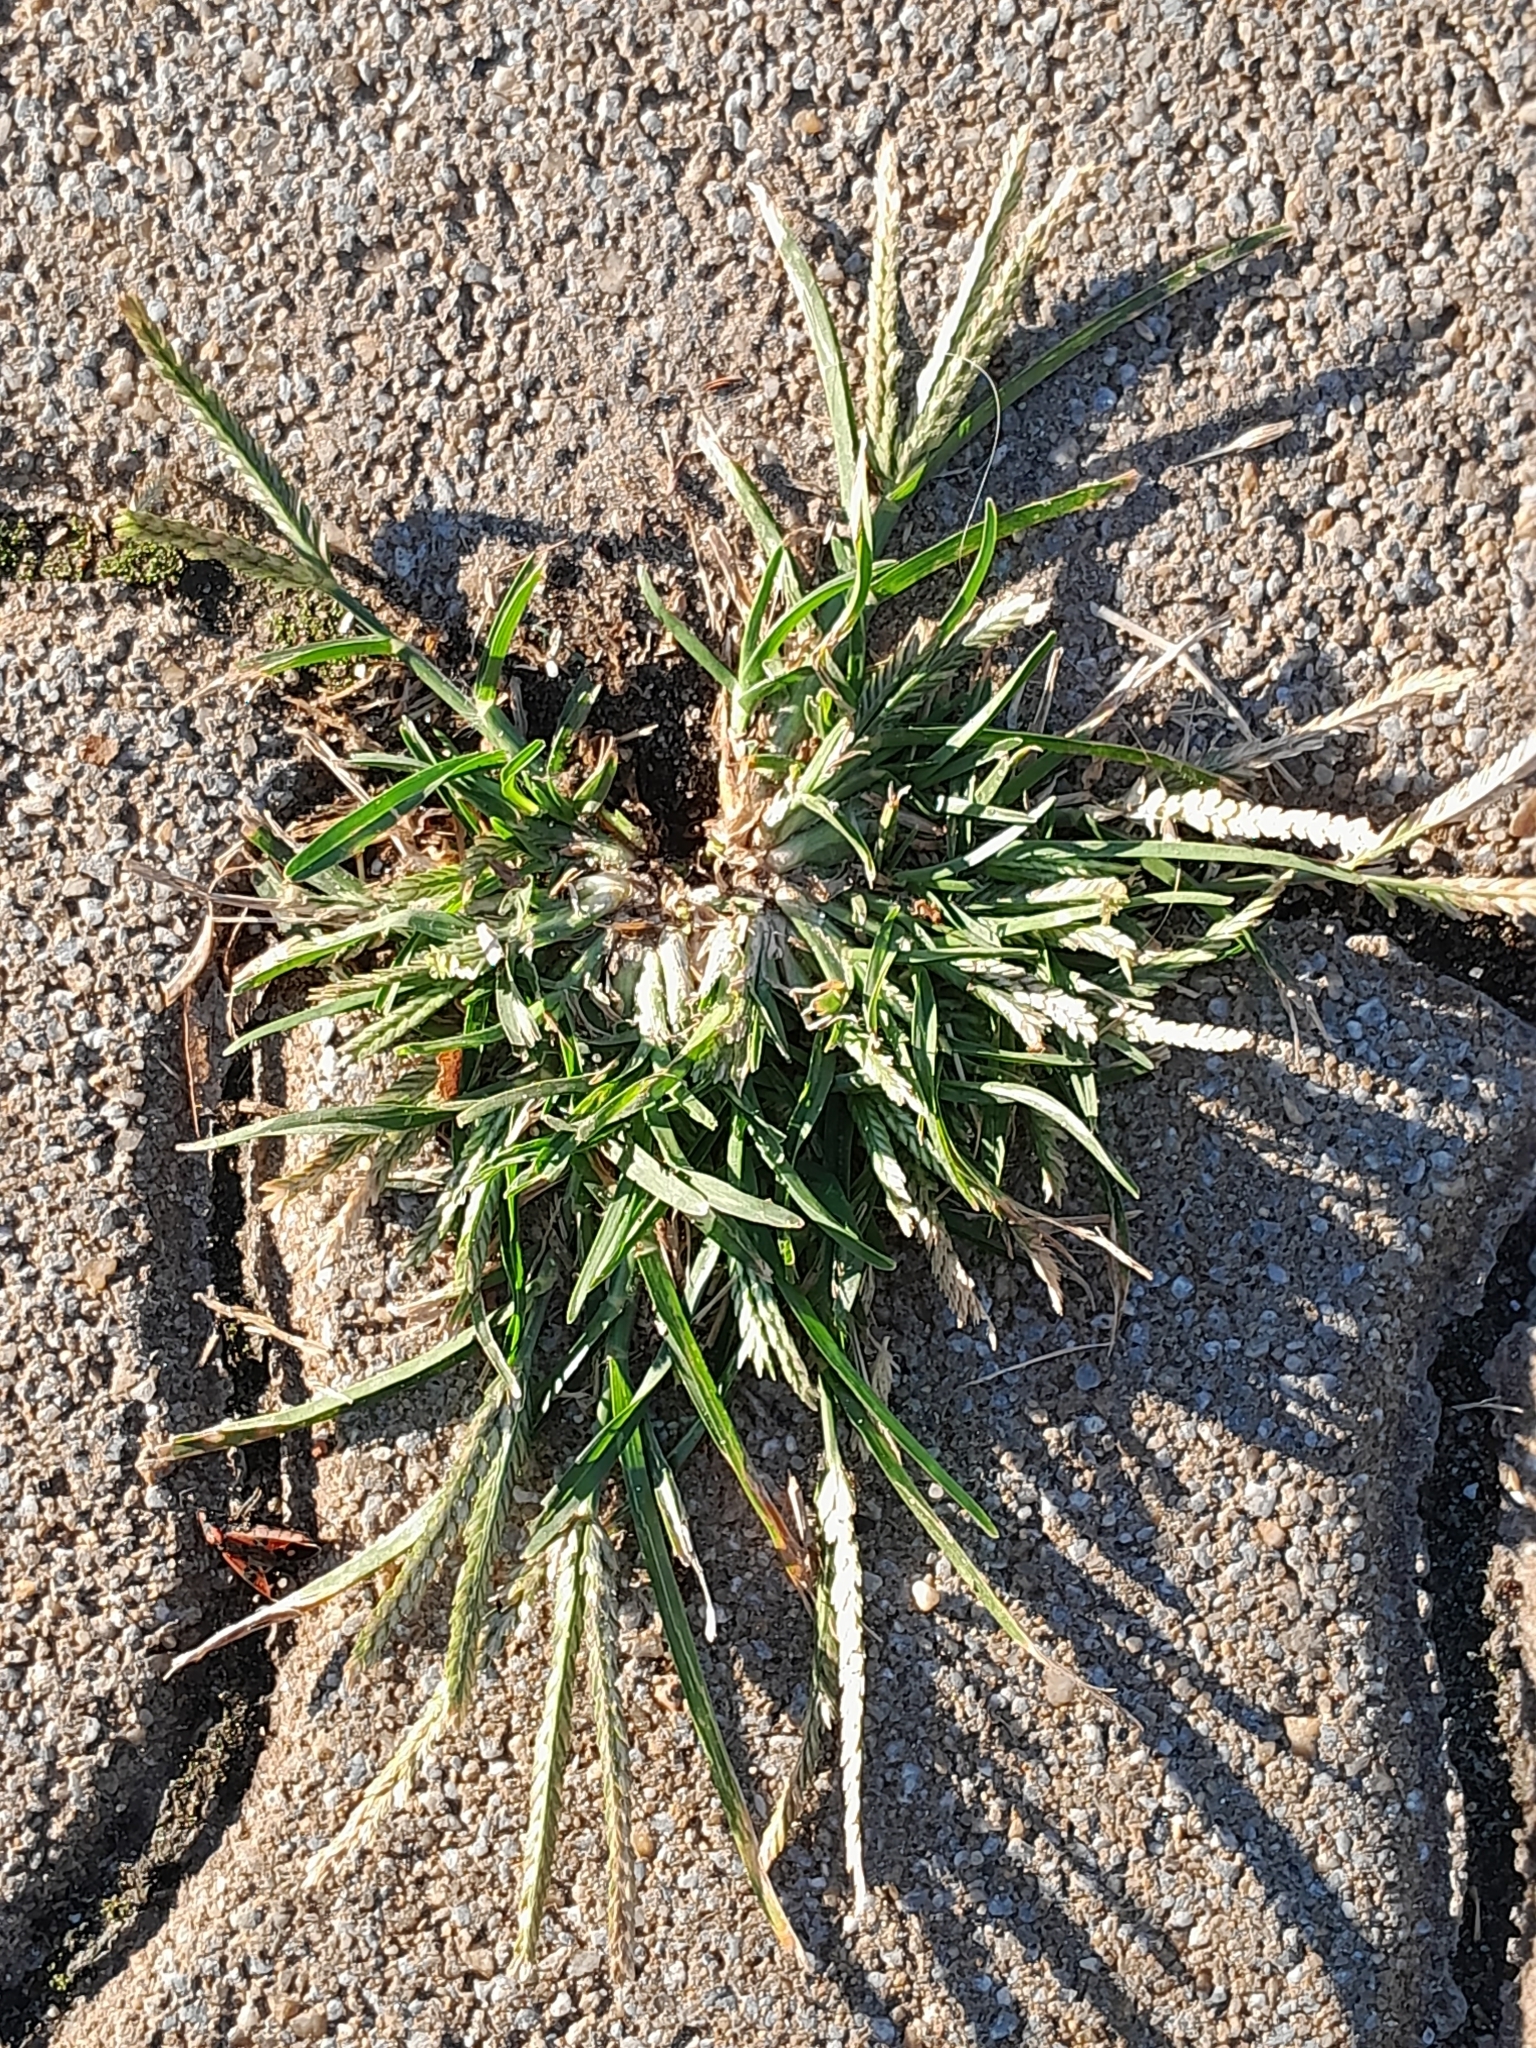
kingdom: Plantae
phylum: Tracheophyta
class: Liliopsida
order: Poales
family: Poaceae
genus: Eleusine
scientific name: Eleusine indica
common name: Yard-grass
